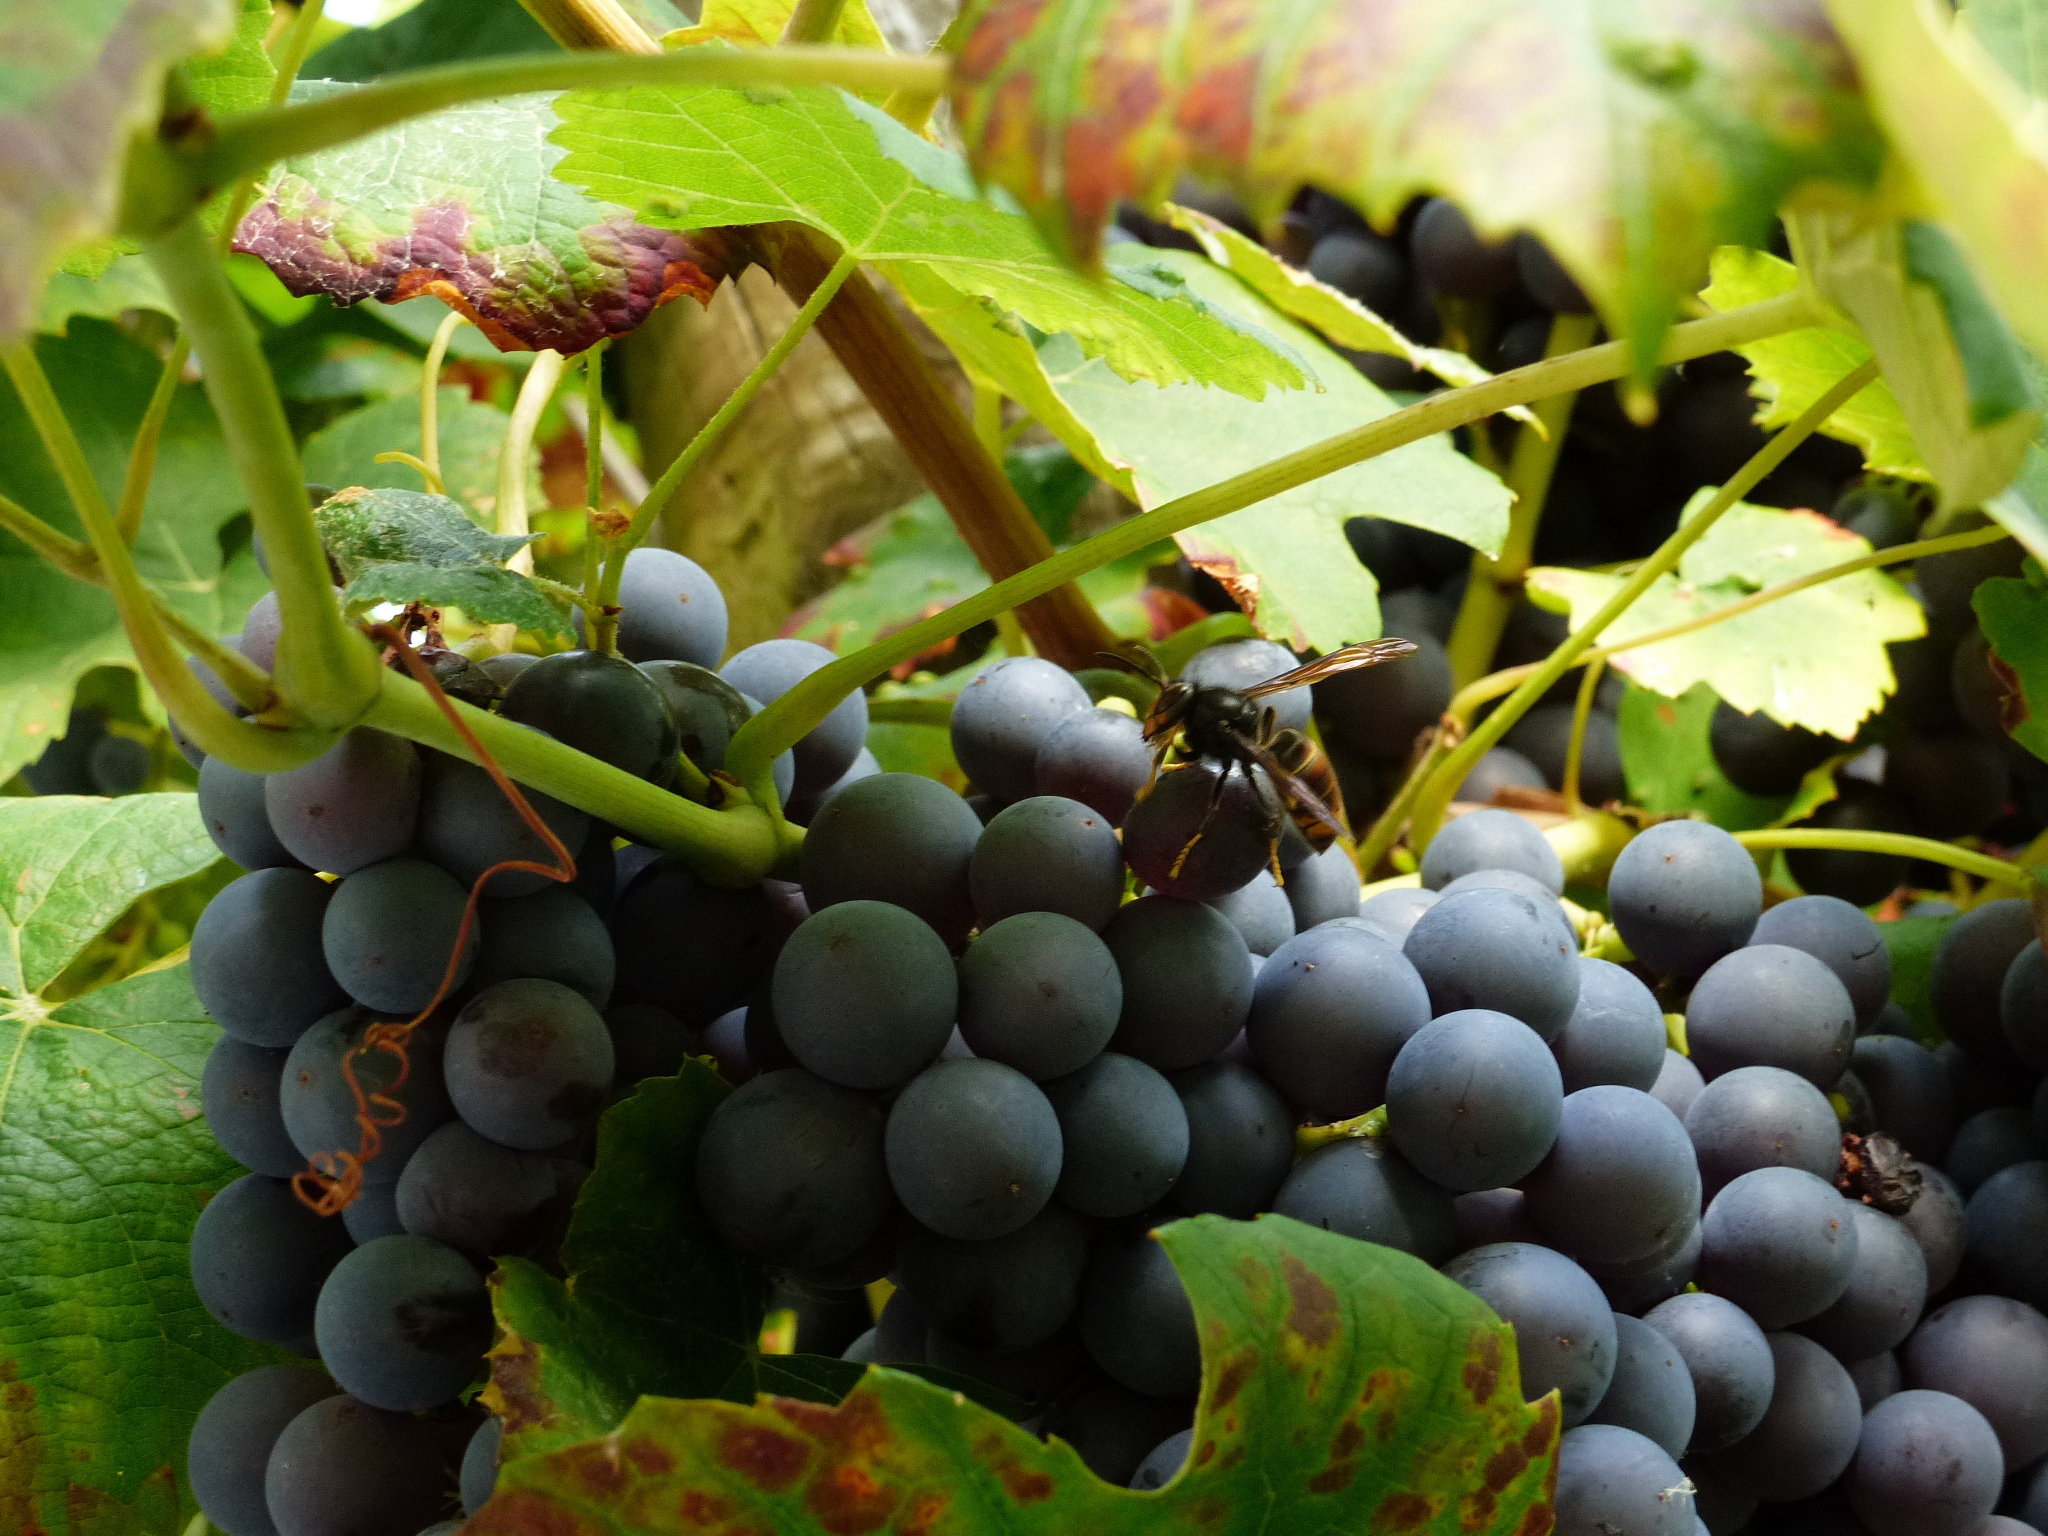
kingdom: Animalia
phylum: Arthropoda
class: Insecta
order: Hymenoptera
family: Vespidae
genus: Vespa
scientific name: Vespa velutina
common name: Asian hornet
